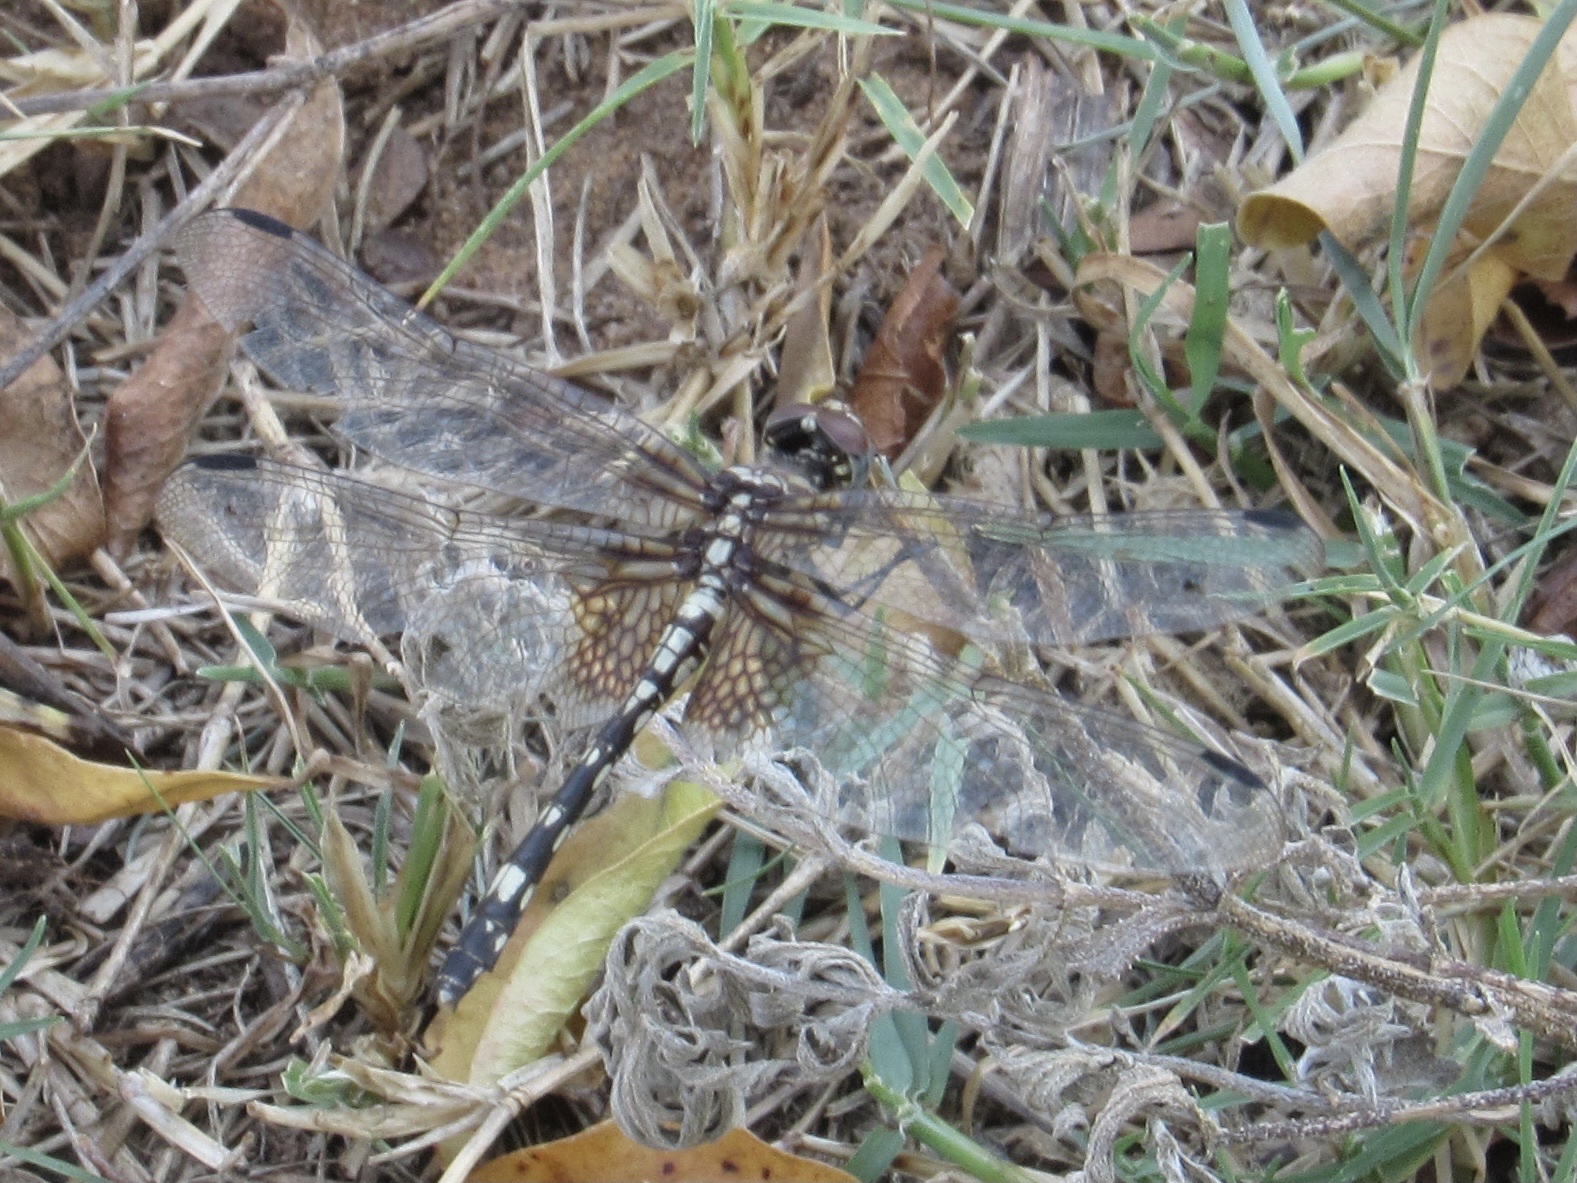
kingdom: Animalia
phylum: Arthropoda
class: Insecta
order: Odonata
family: Libellulidae
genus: Dythemis
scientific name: Dythemis fugax
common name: Checkered setwing
